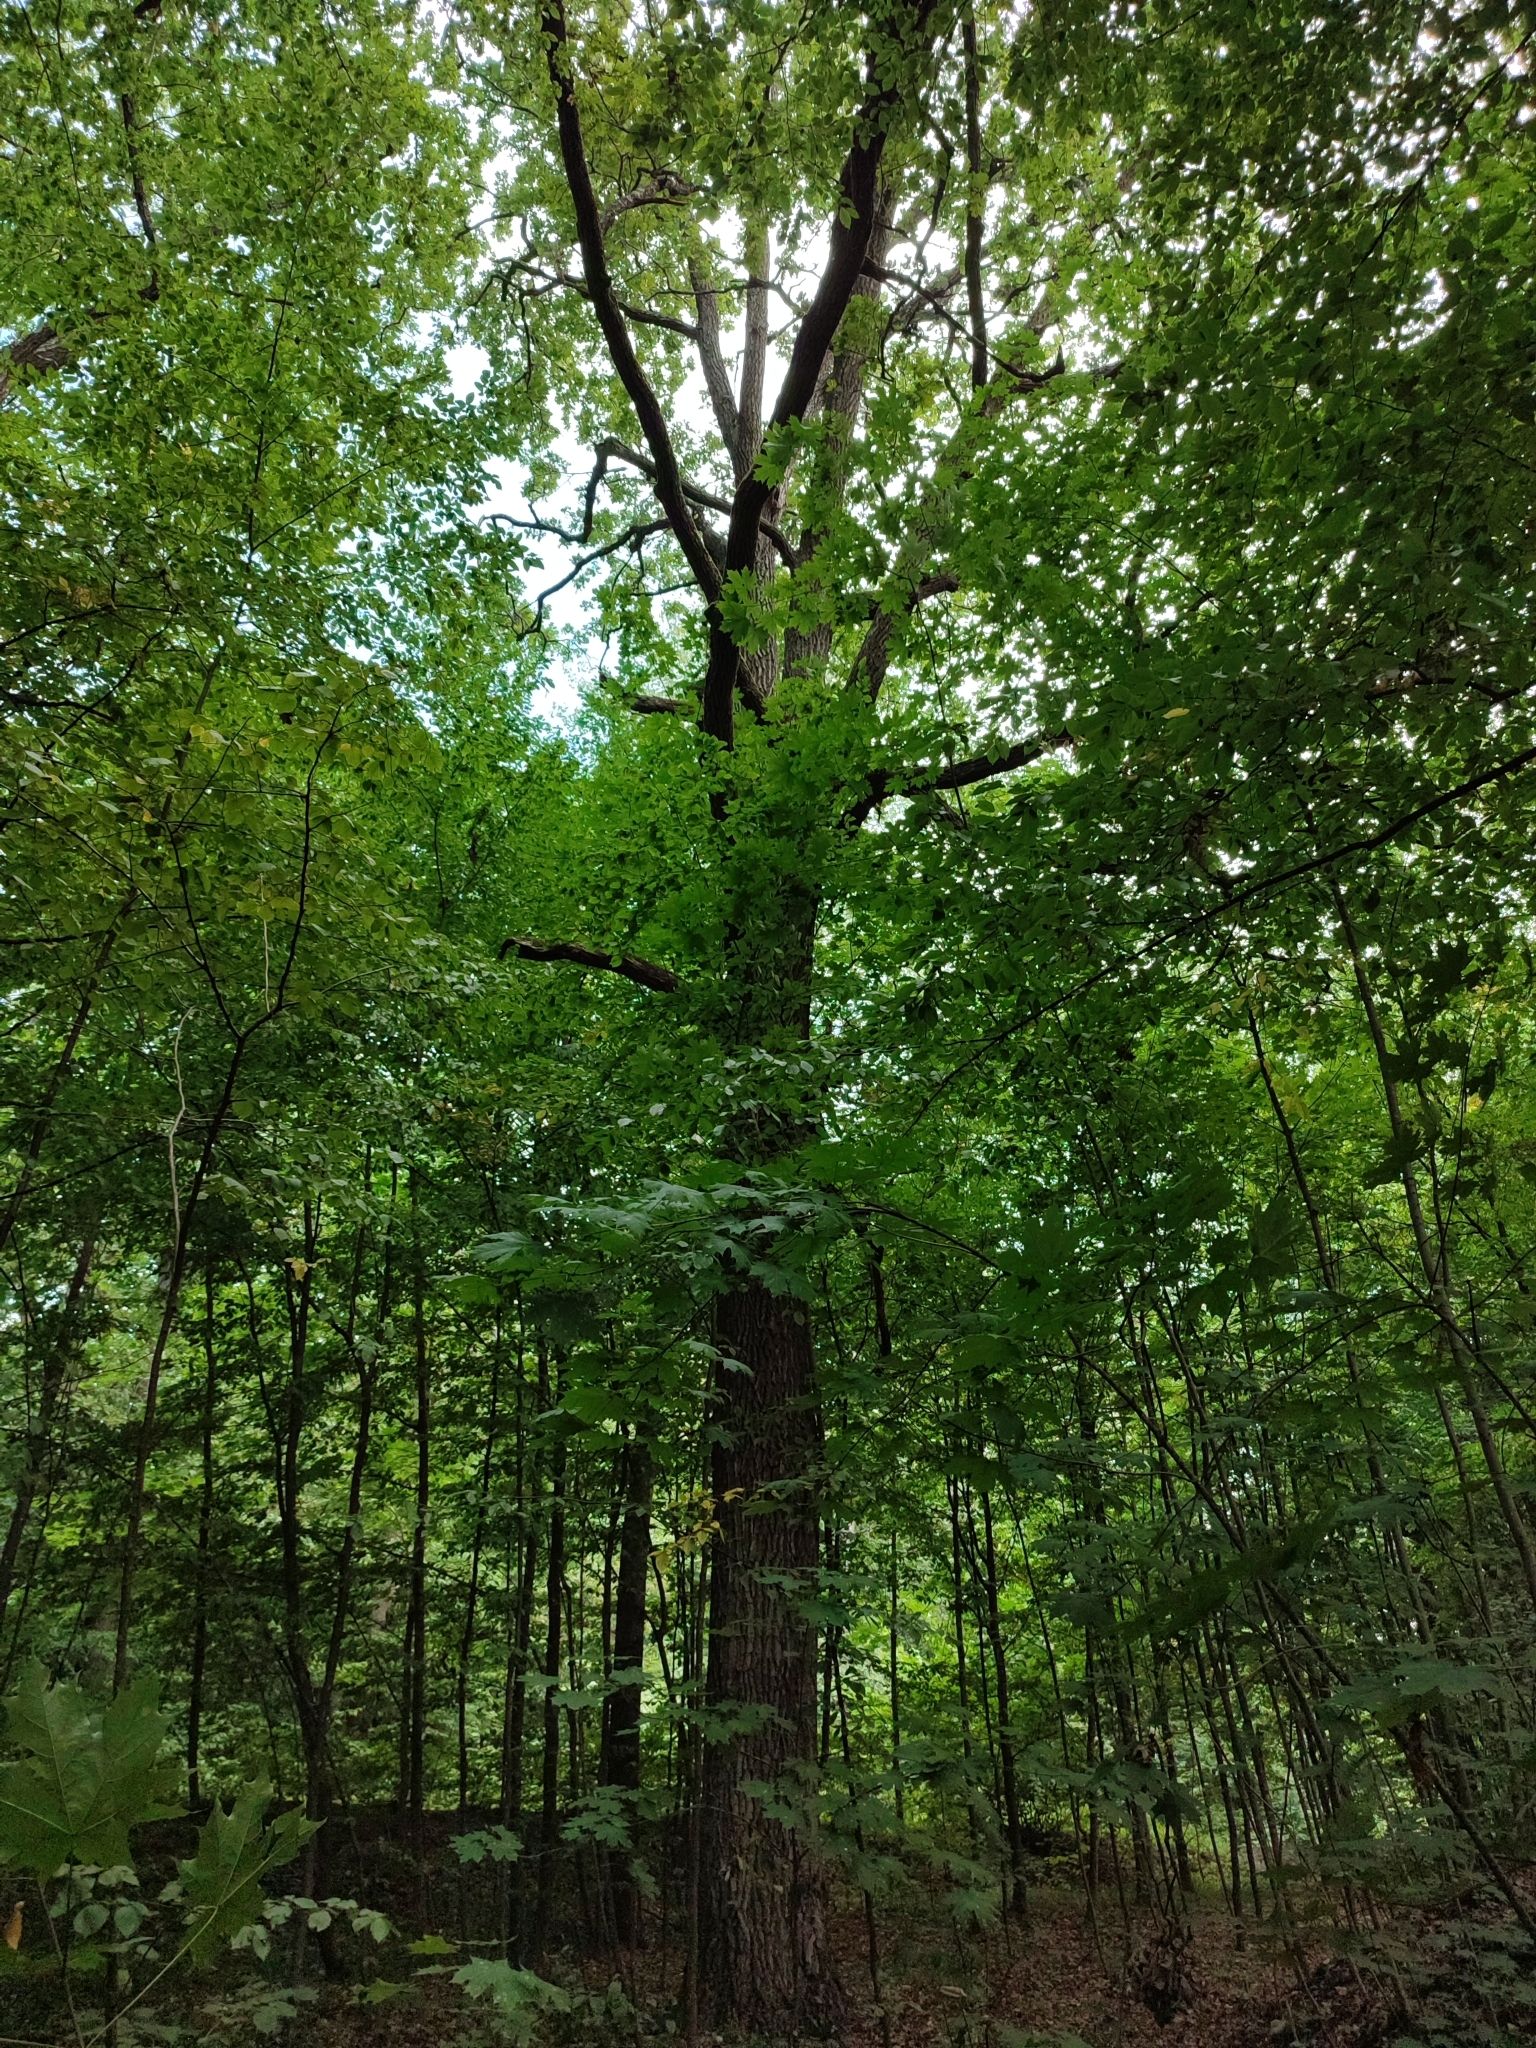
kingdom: Plantae
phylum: Tracheophyta
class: Magnoliopsida
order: Fagales
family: Fagaceae
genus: Quercus
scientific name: Quercus robur
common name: Pedunculate oak
